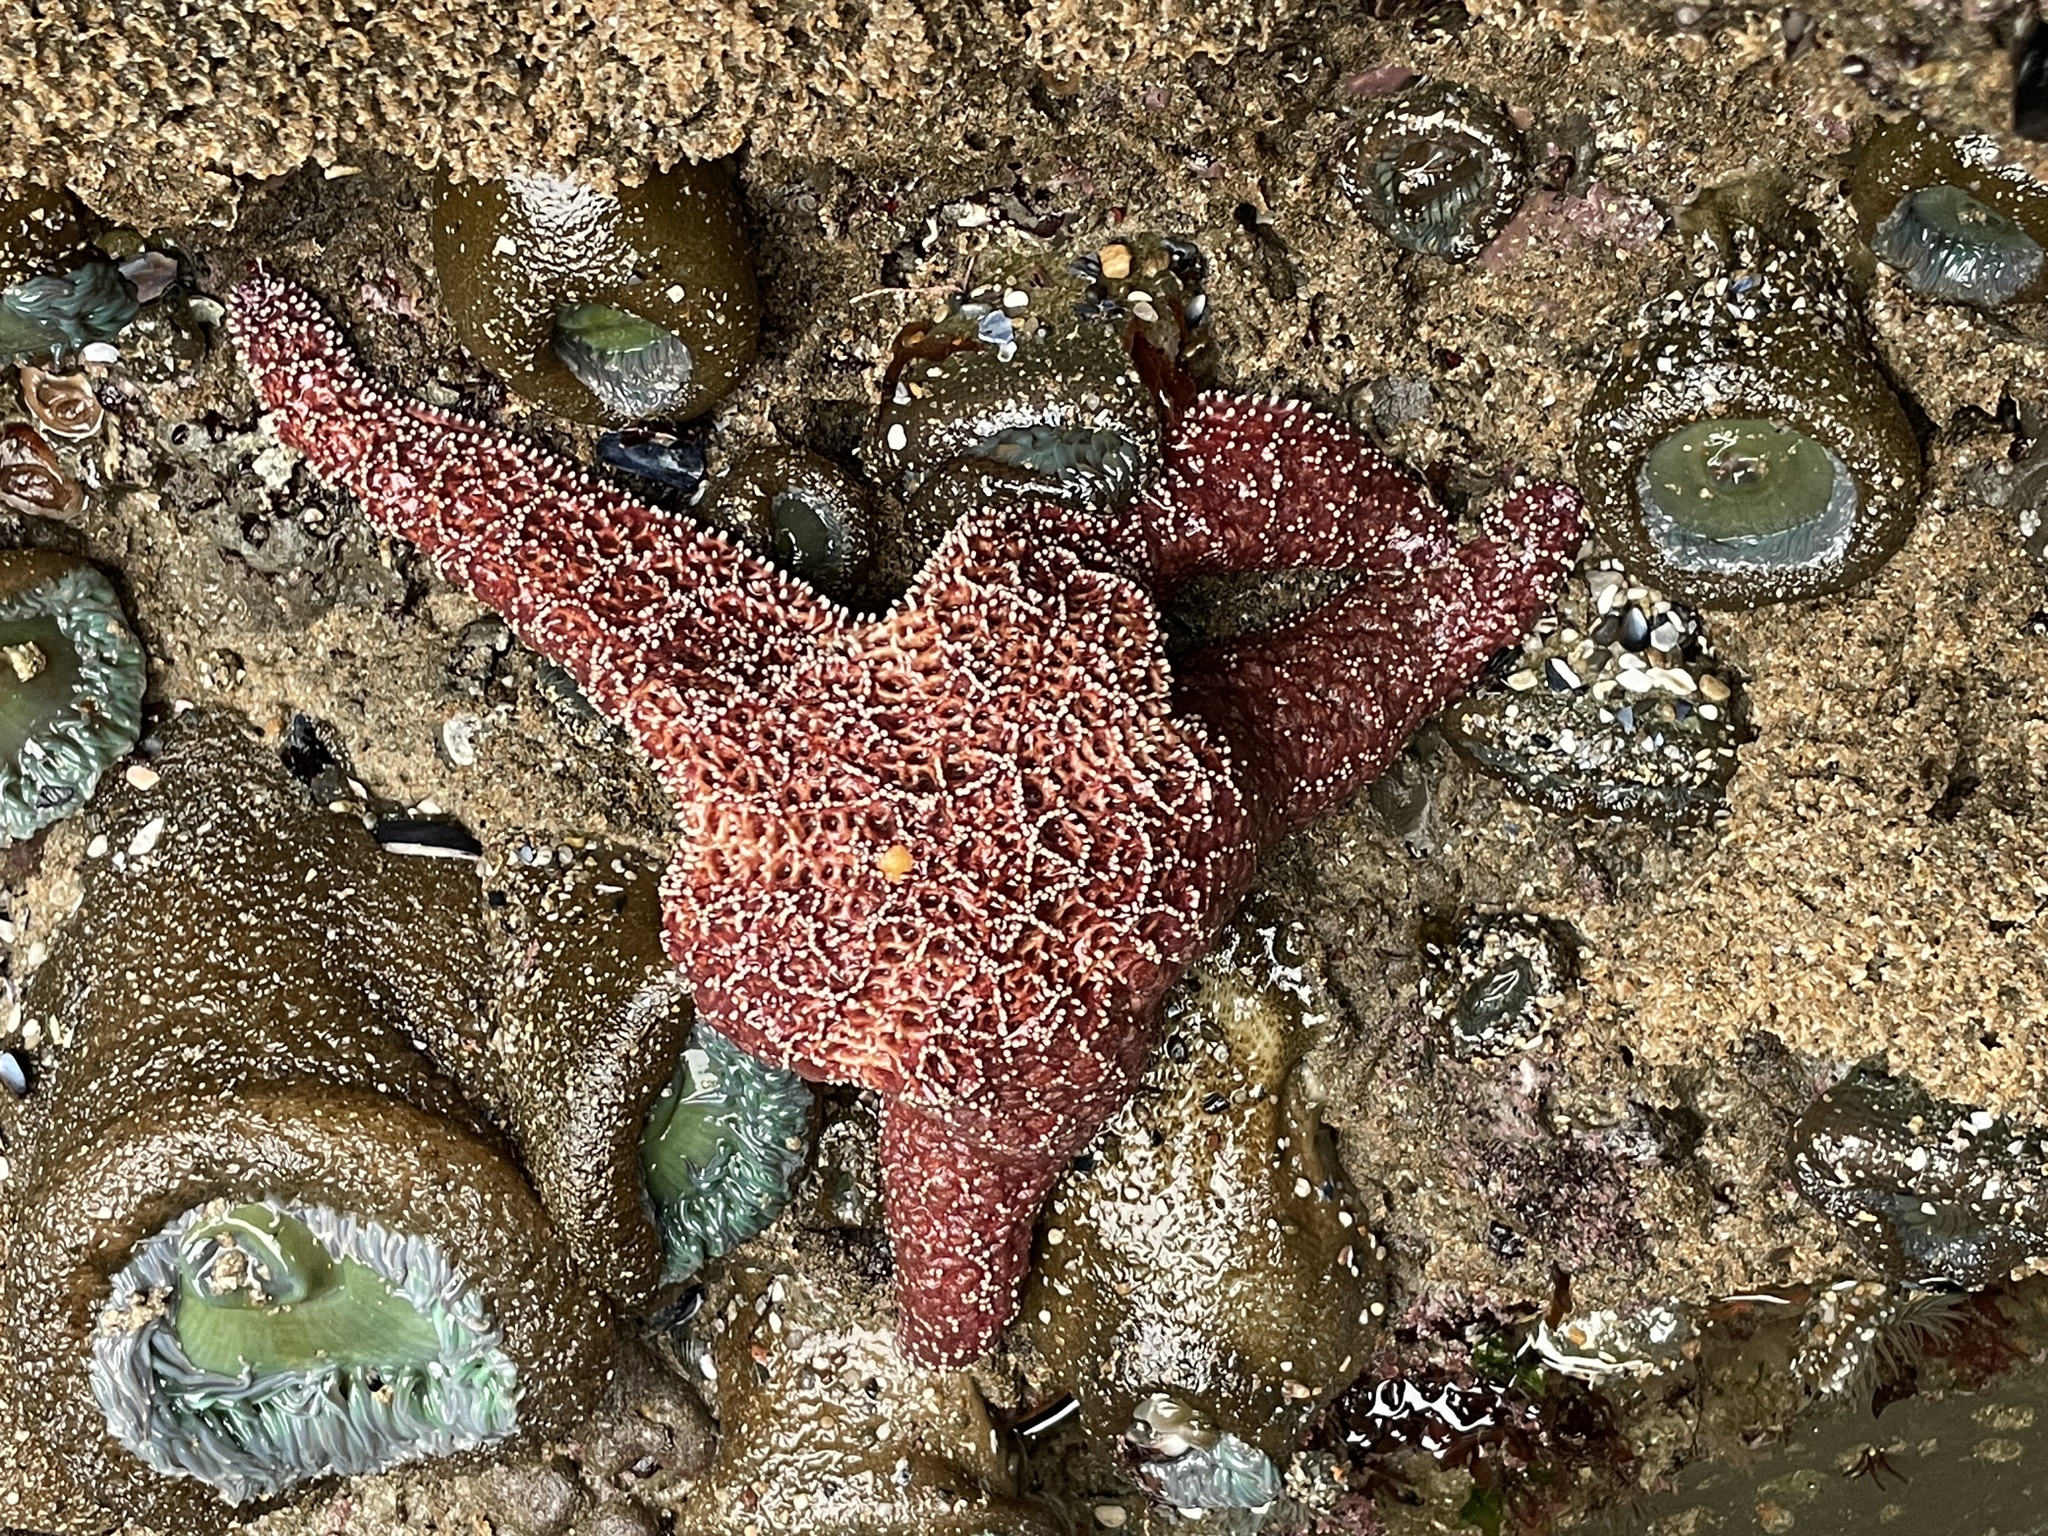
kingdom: Animalia
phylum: Echinodermata
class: Asteroidea
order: Forcipulatida
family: Asteriidae
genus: Pisaster
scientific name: Pisaster ochraceus
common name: Ochre stars
